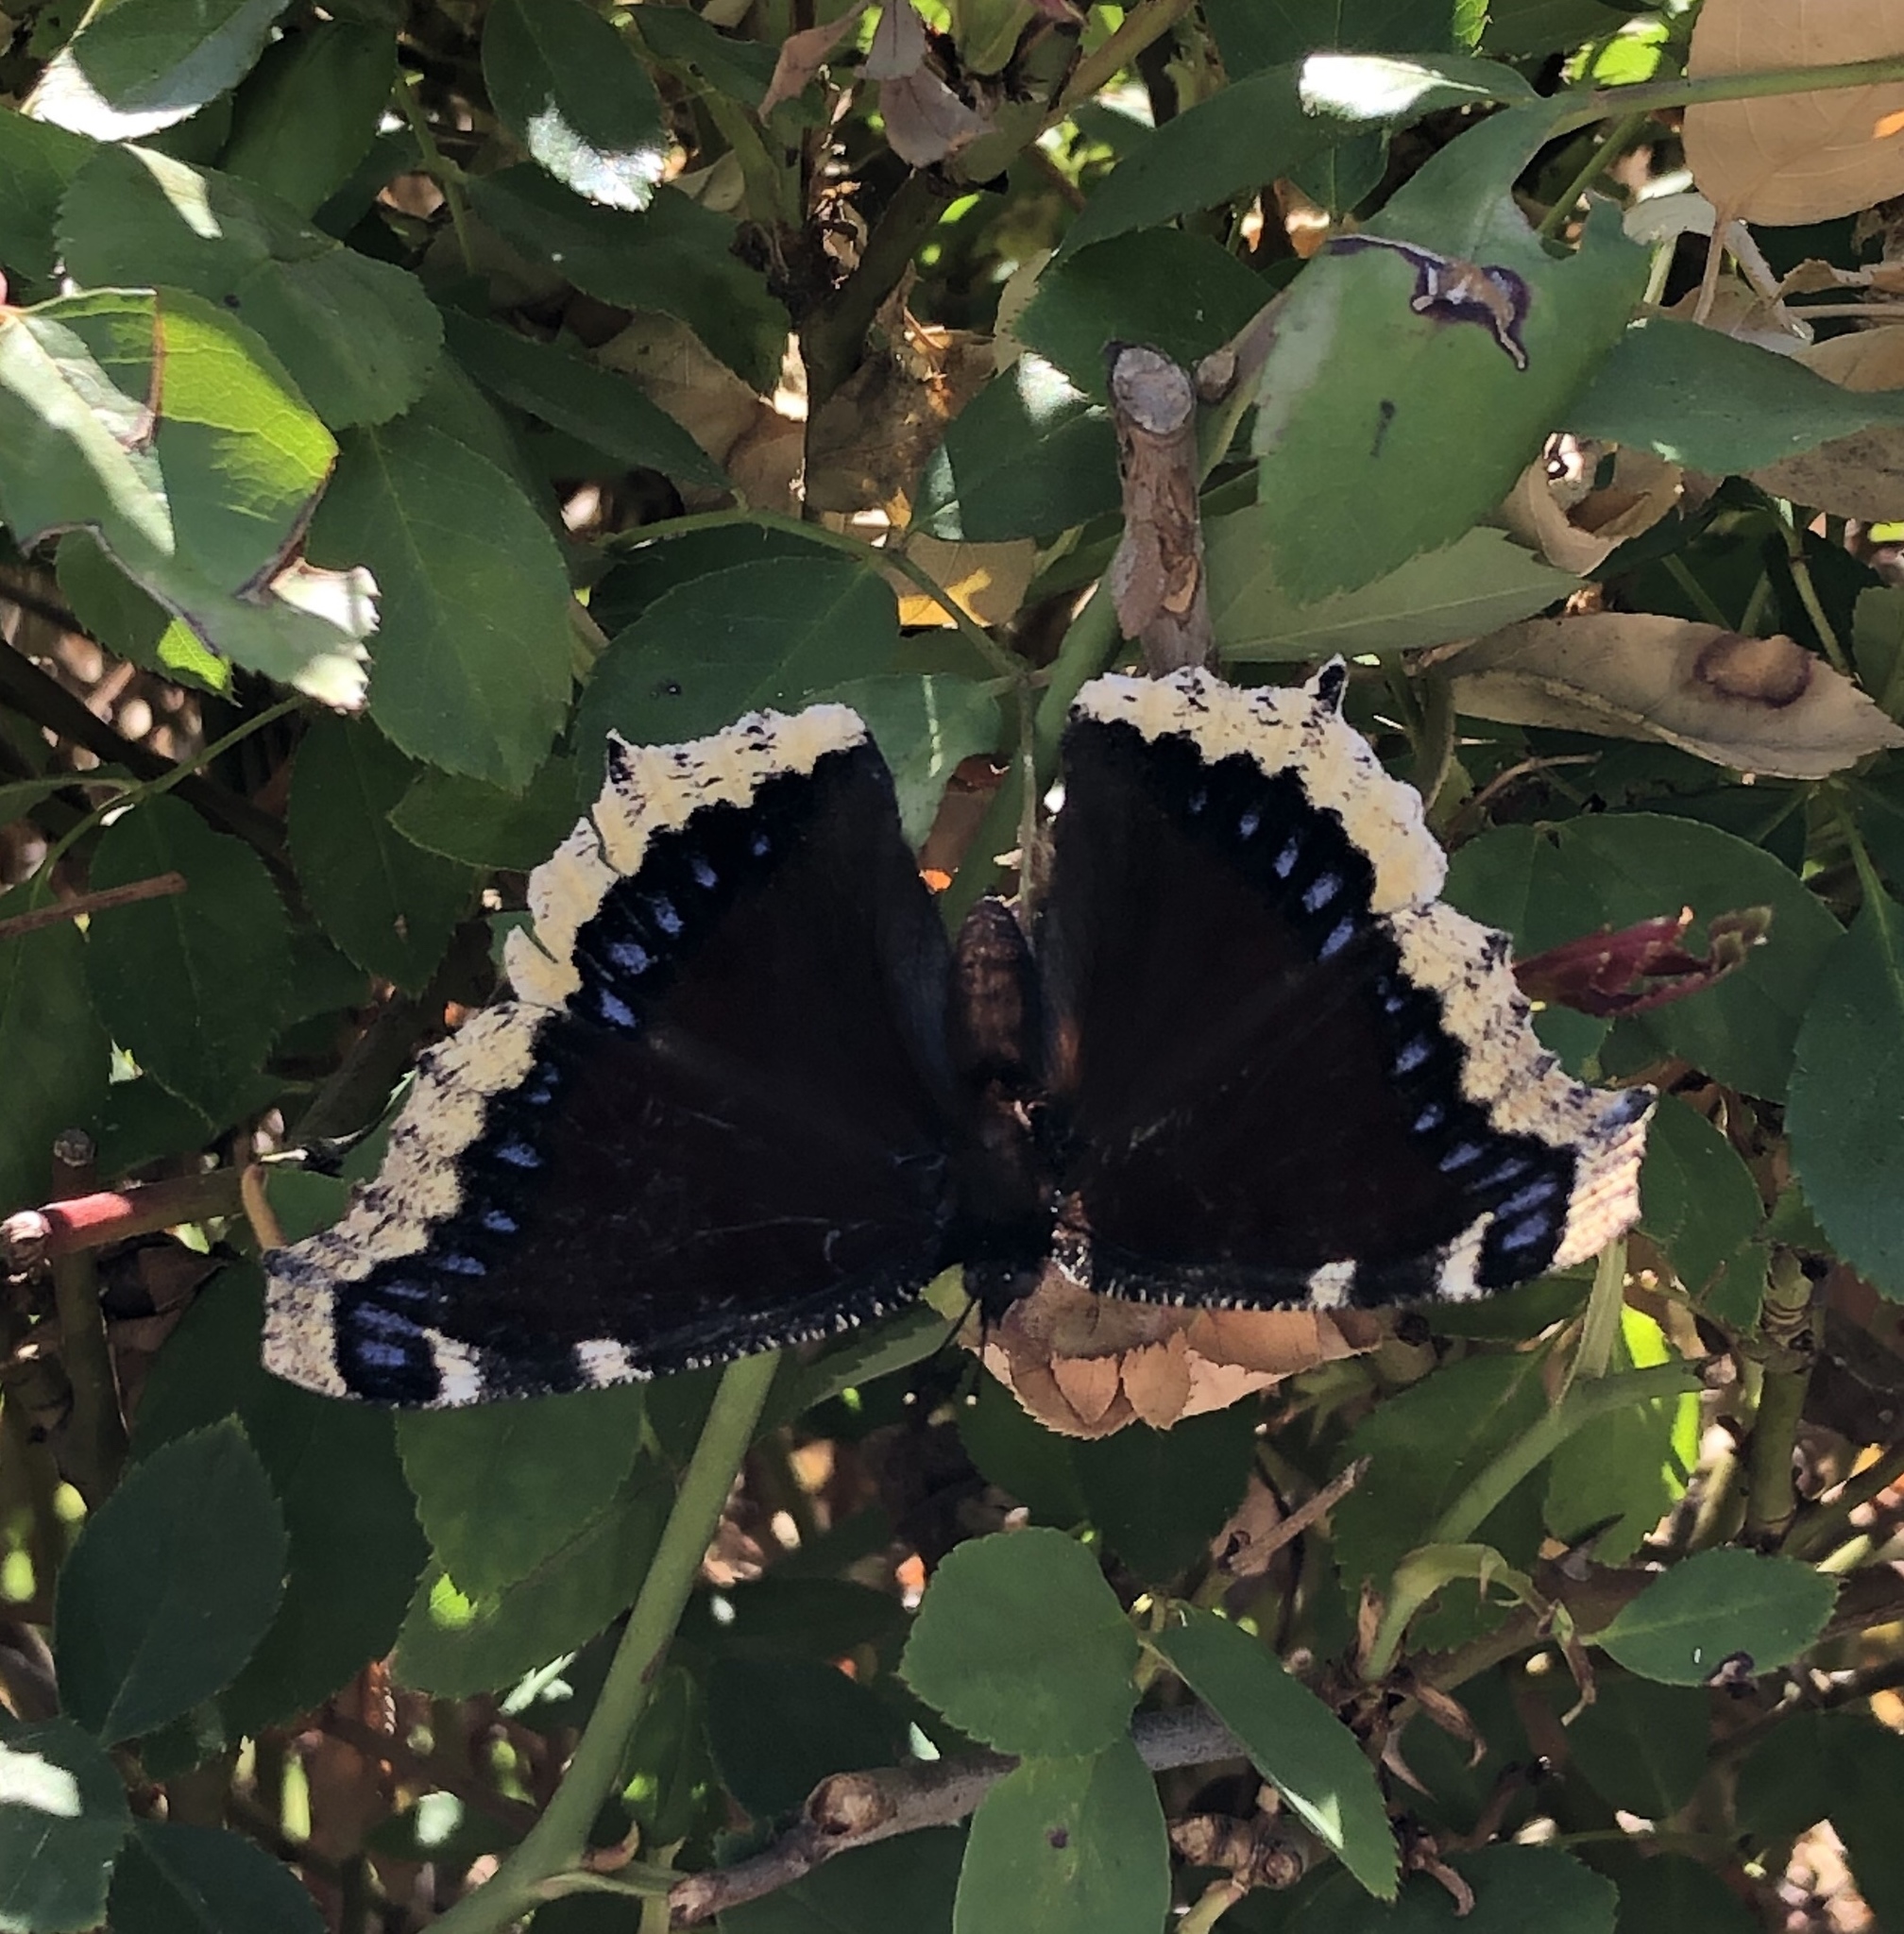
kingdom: Animalia
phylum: Arthropoda
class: Insecta
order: Lepidoptera
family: Nymphalidae
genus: Nymphalis
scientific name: Nymphalis antiopa
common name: Camberwell beauty
